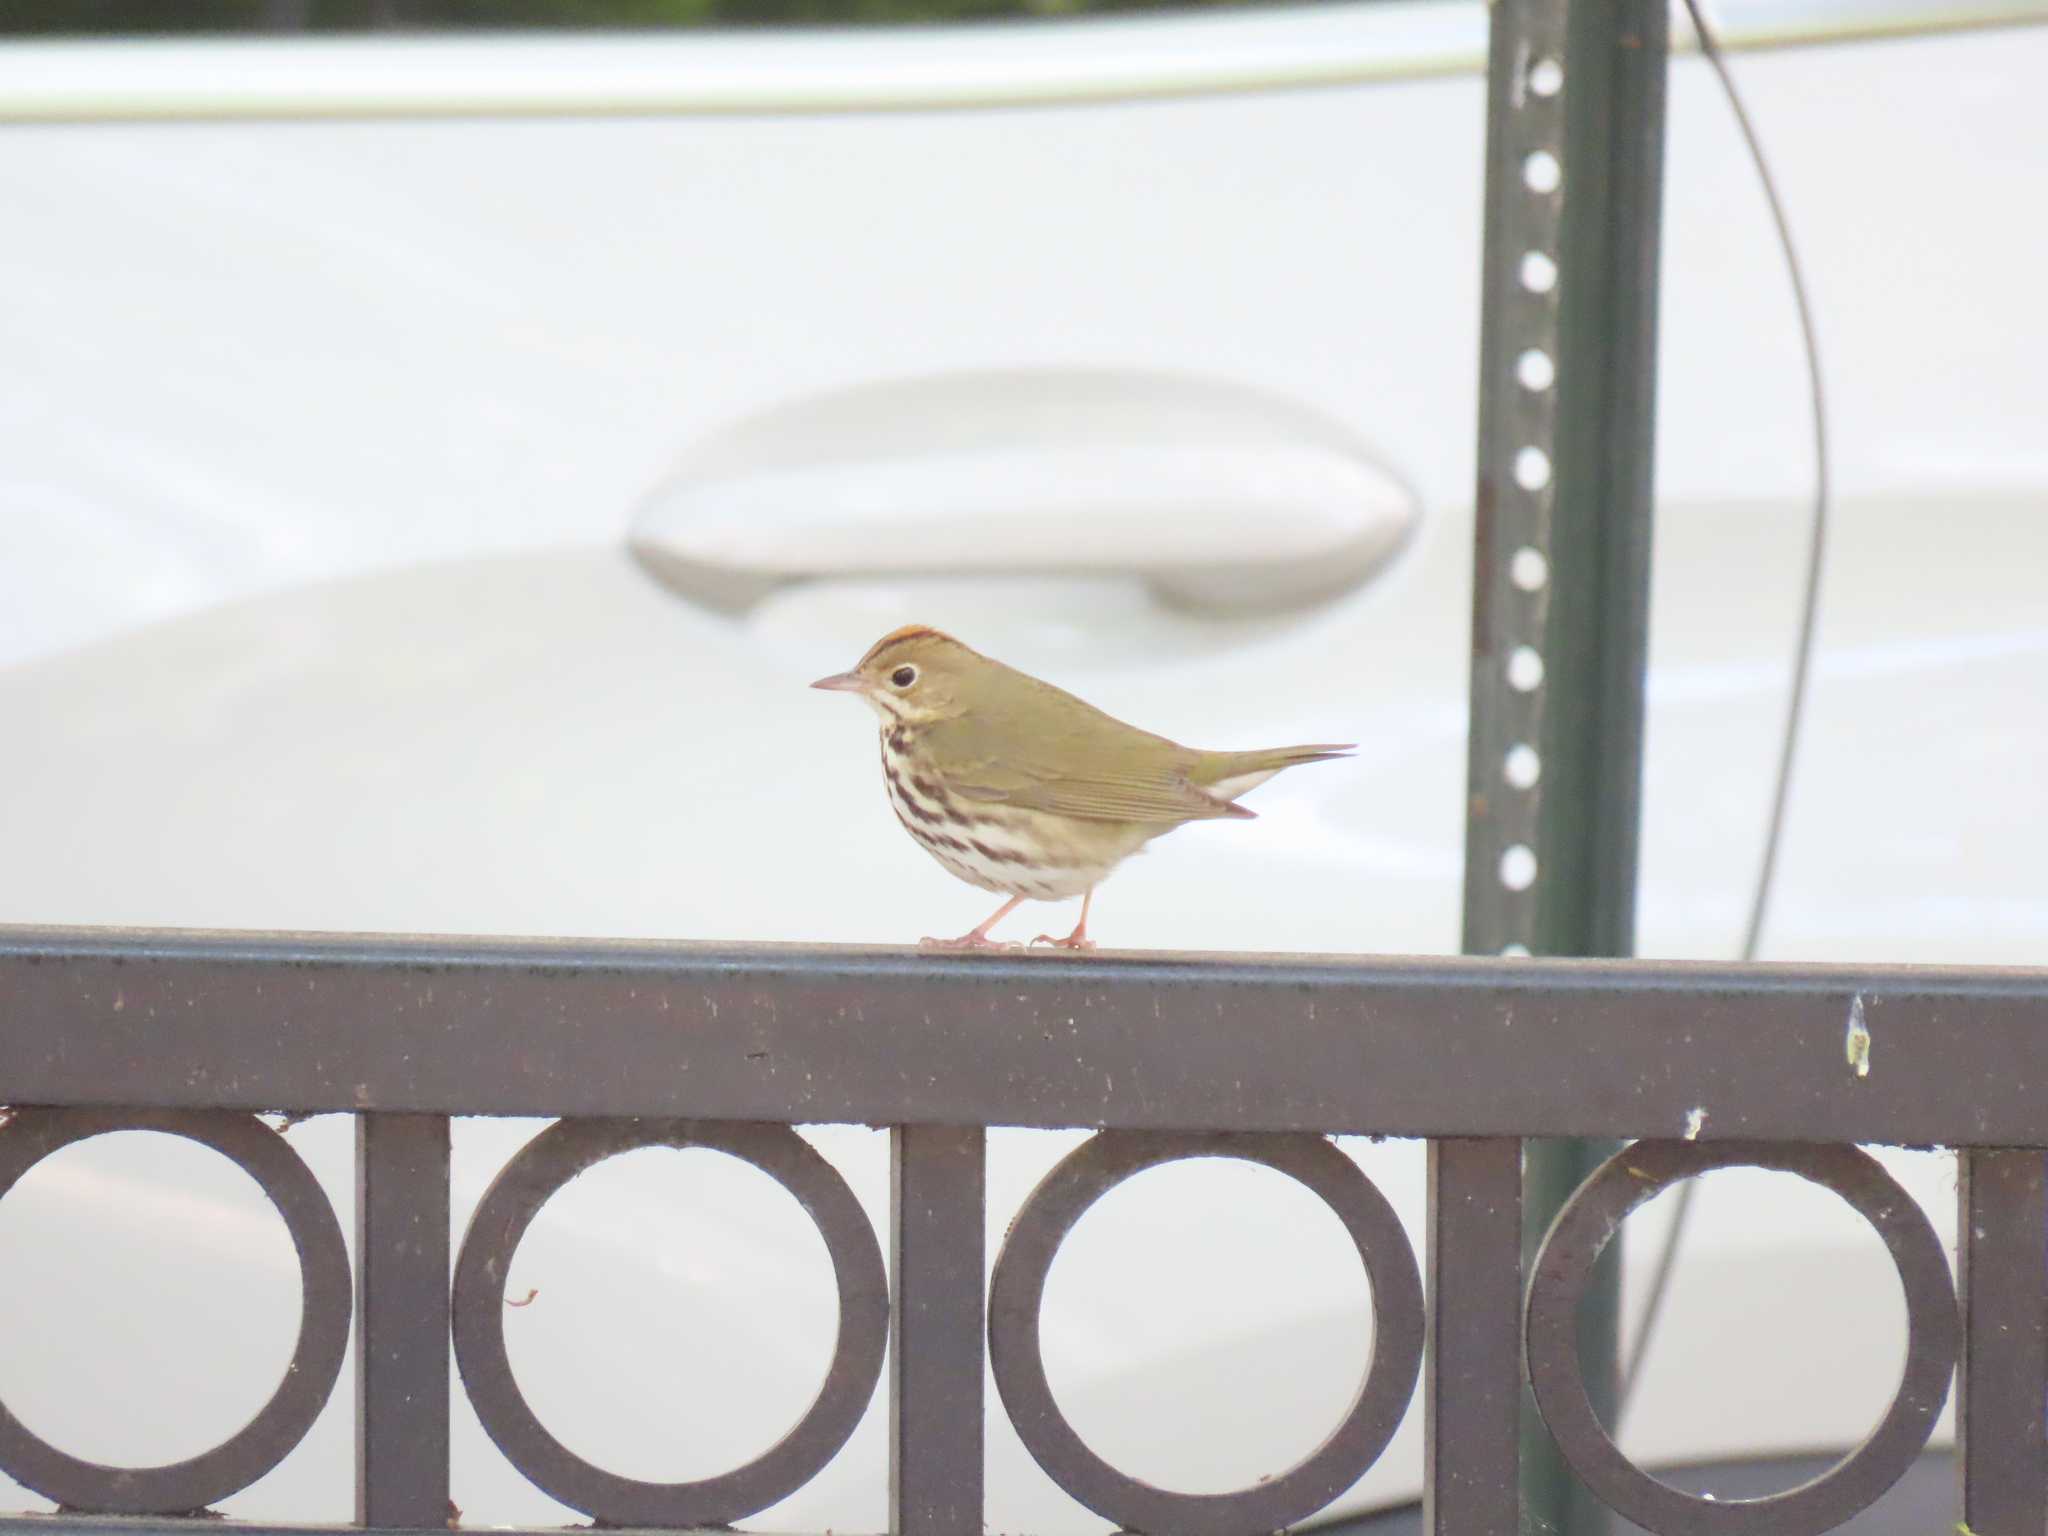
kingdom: Animalia
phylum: Chordata
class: Aves
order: Passeriformes
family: Parulidae
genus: Seiurus
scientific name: Seiurus aurocapilla
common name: Ovenbird
